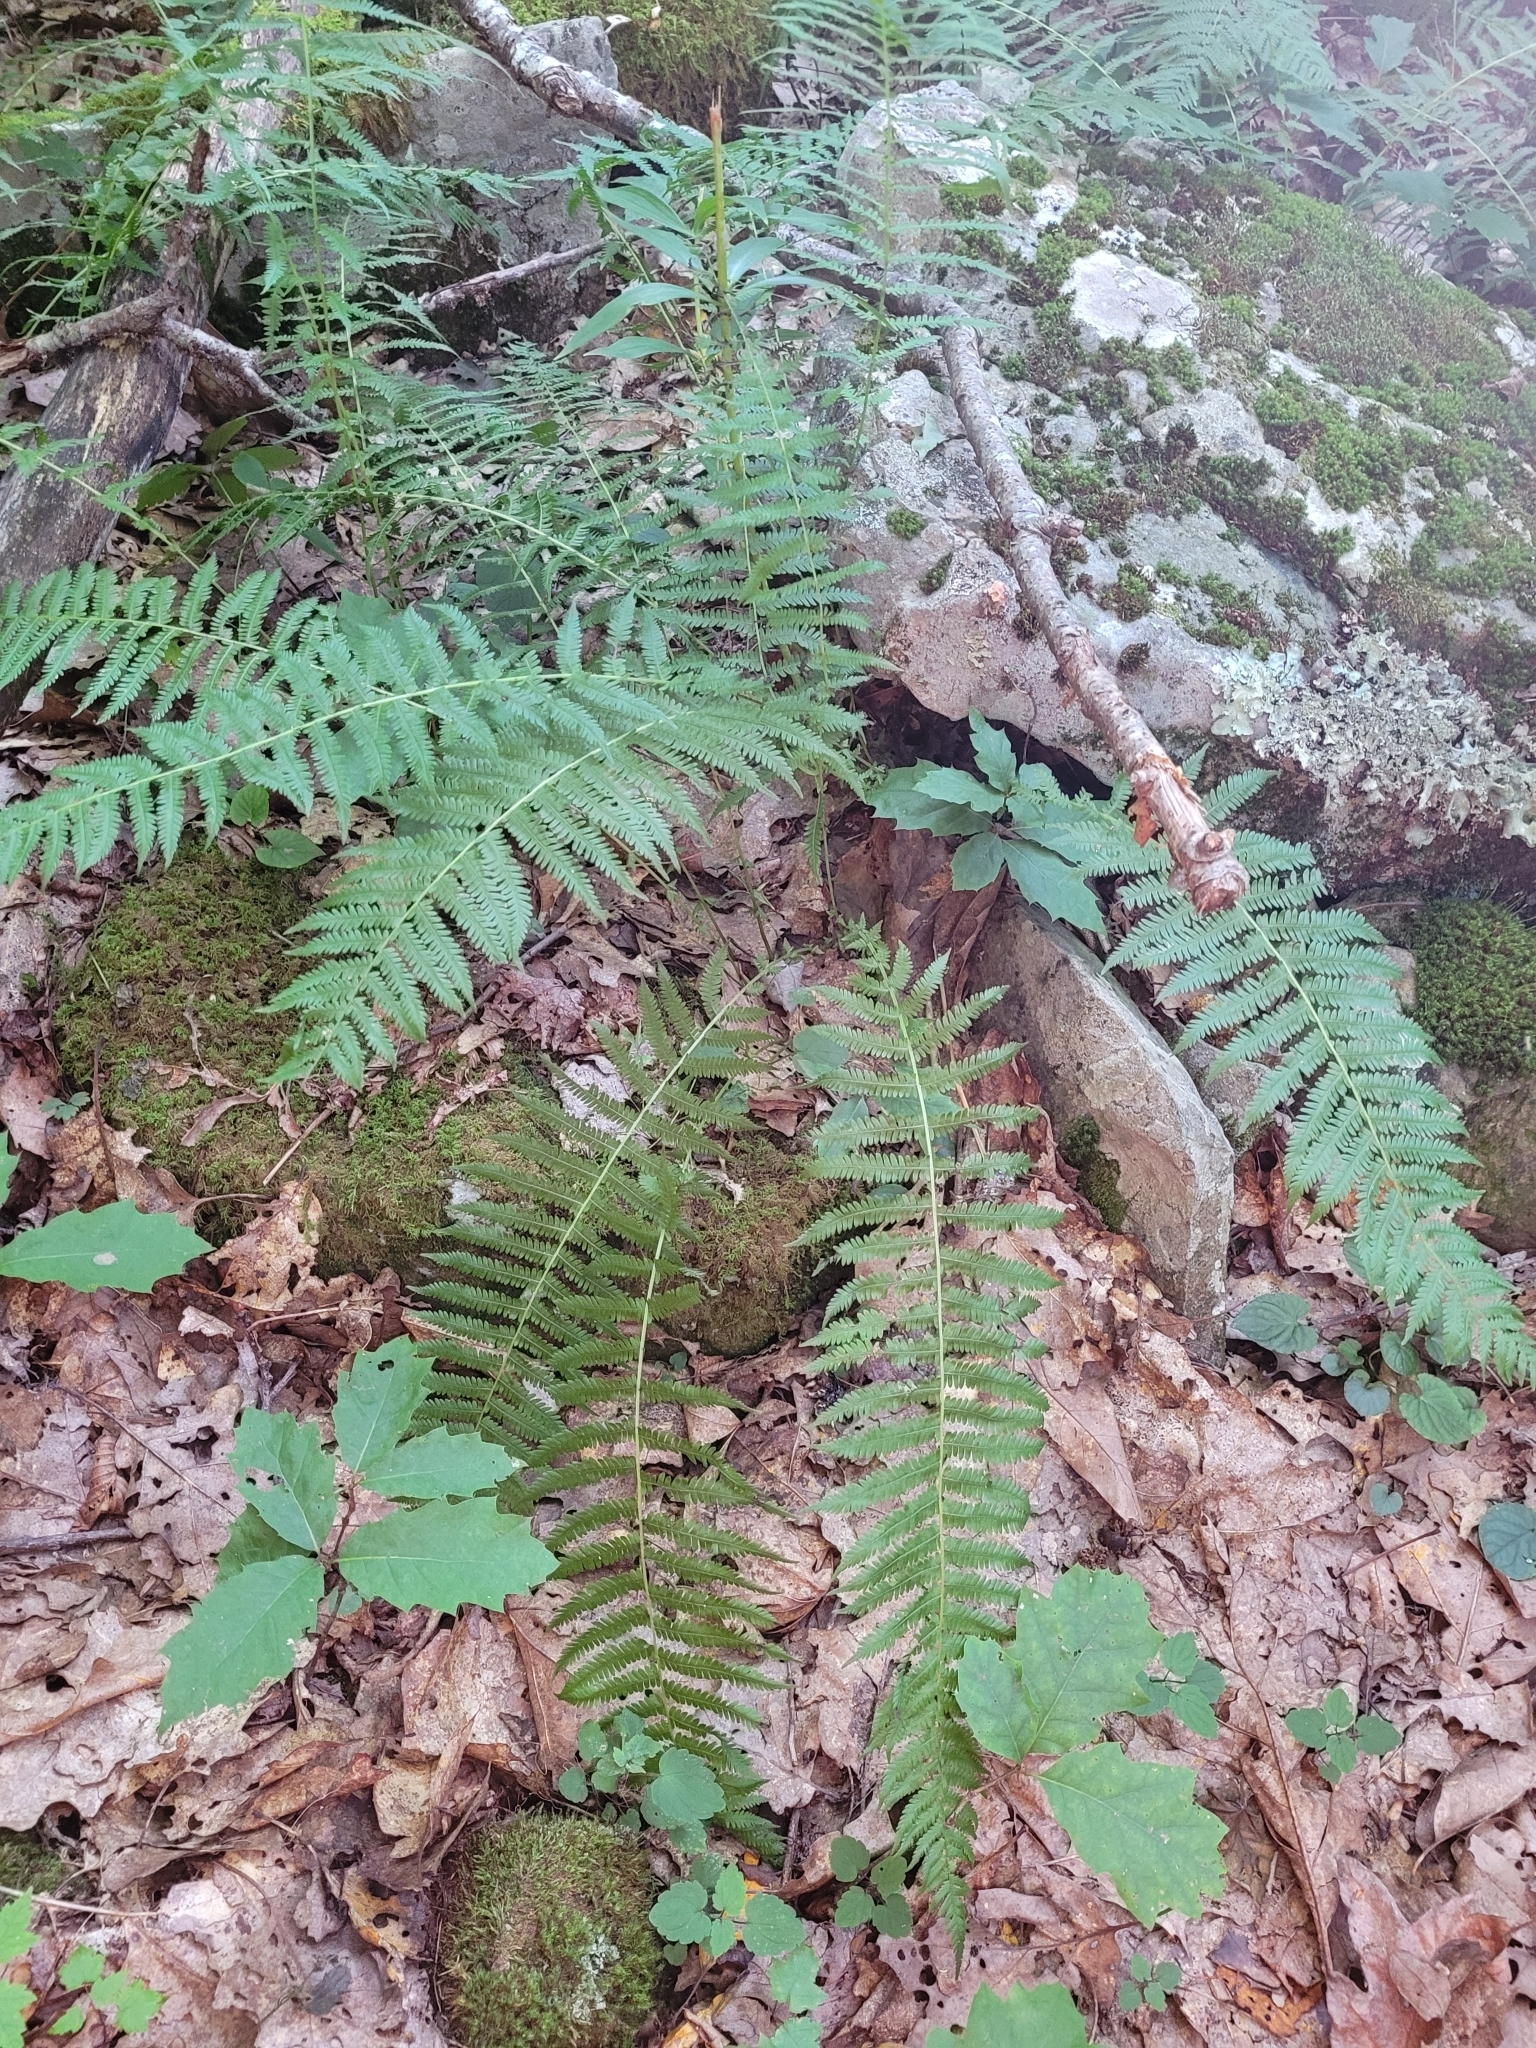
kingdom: Plantae
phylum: Tracheophyta
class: Polypodiopsida
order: Polypodiales
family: Thelypteridaceae
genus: Amauropelta
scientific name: Amauropelta noveboracensis
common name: New york fern
